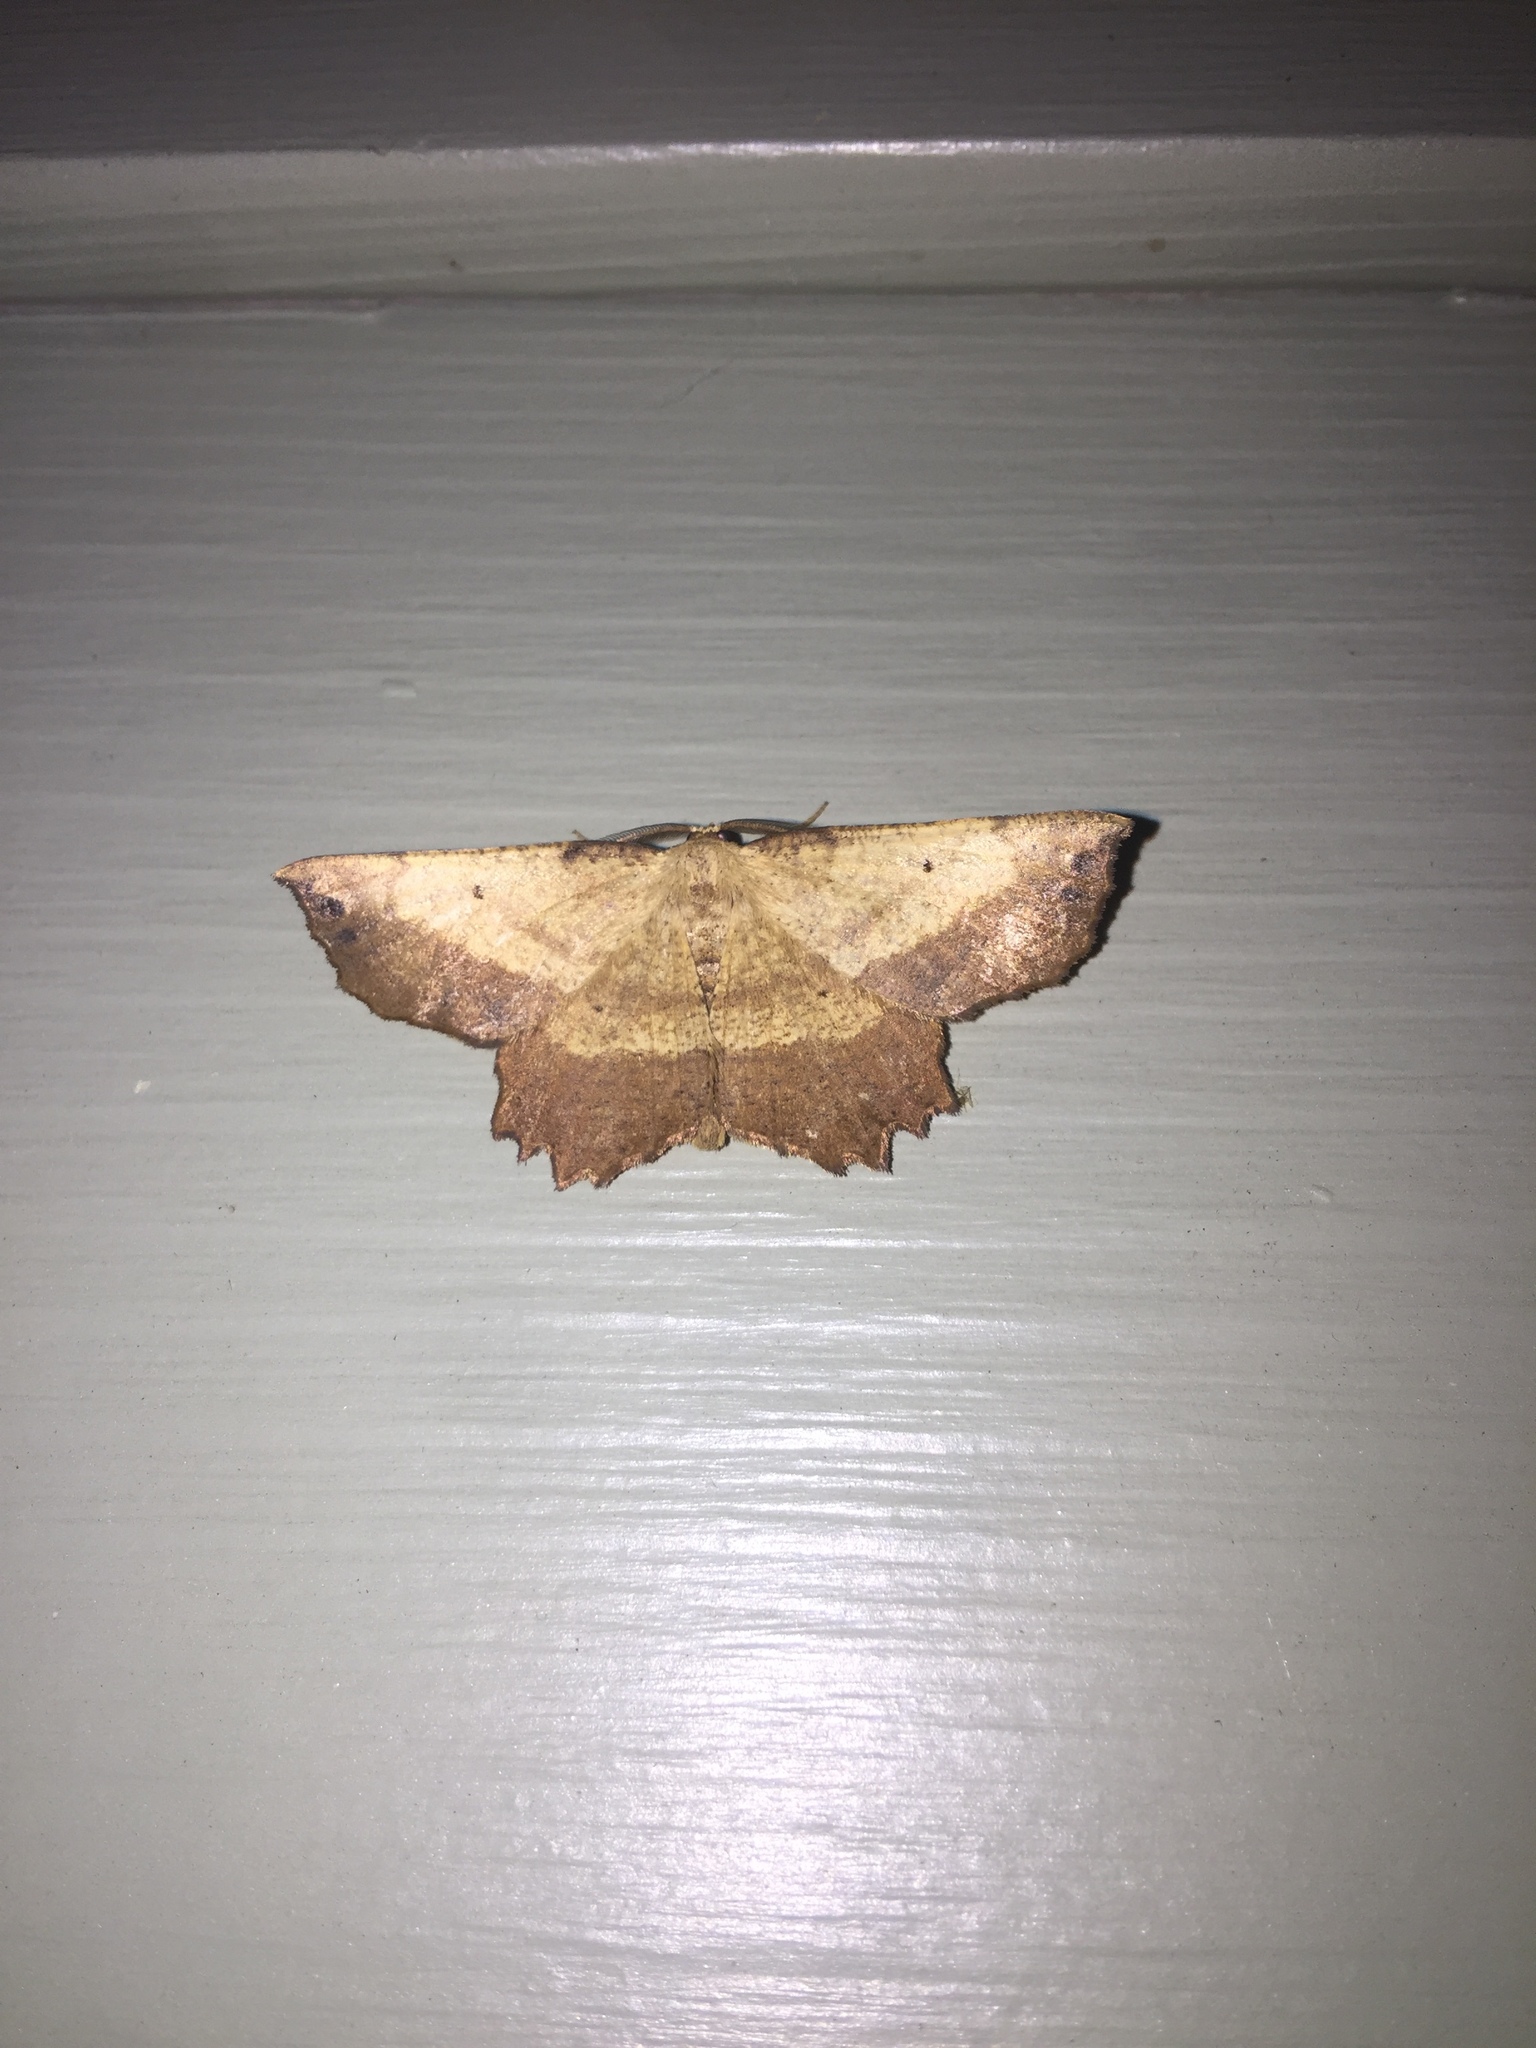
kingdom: Animalia
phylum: Arthropoda
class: Insecta
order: Lepidoptera
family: Geometridae
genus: Euchlaena
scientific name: Euchlaena obtusaria
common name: Obtuse euchlaena moth
